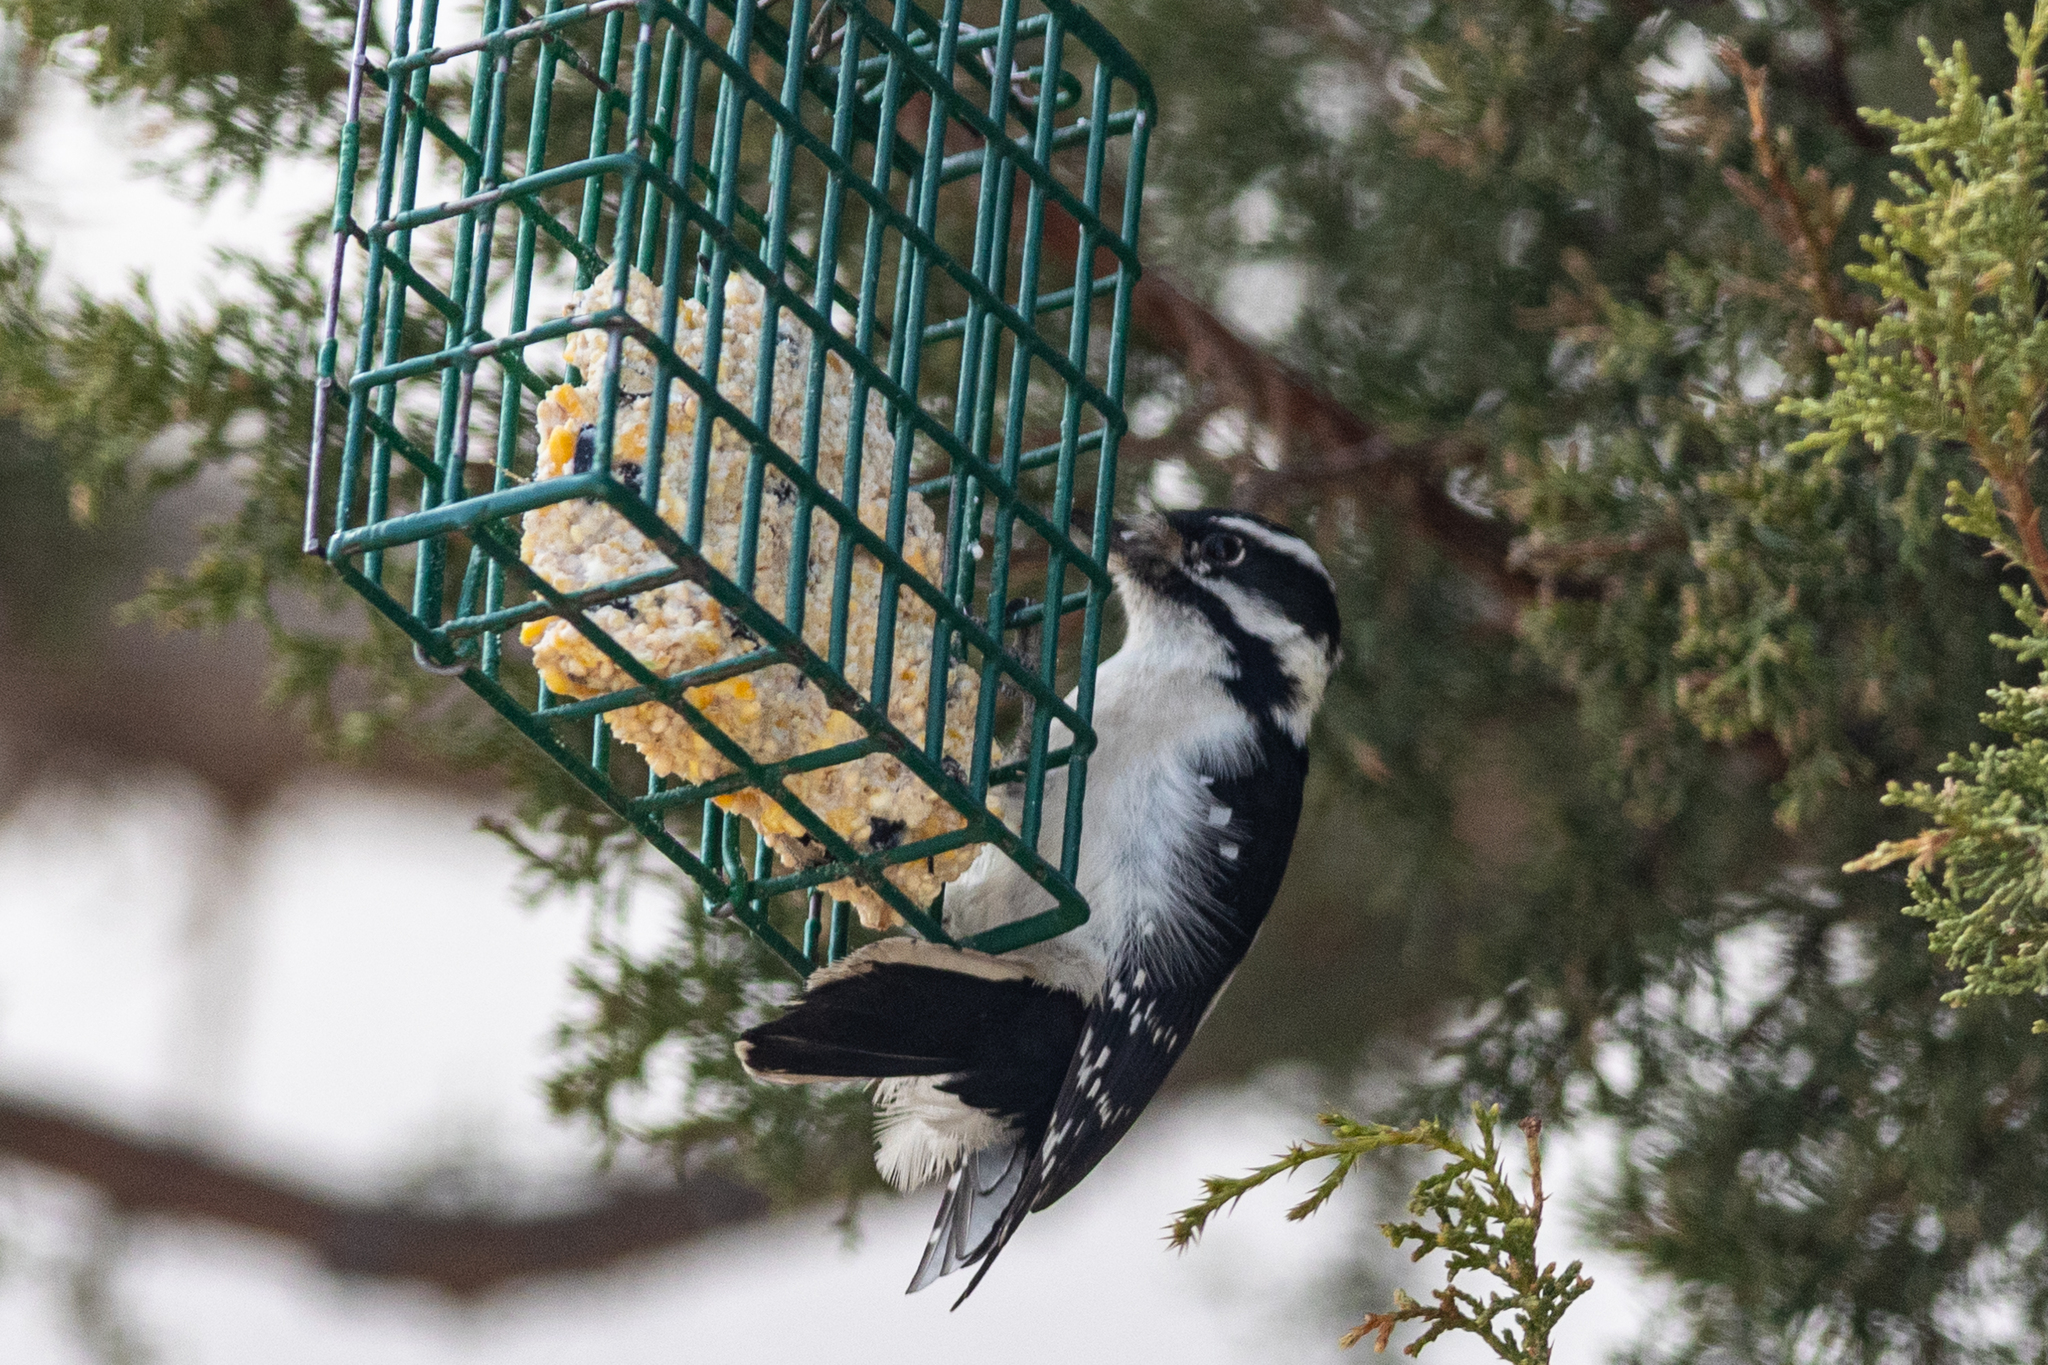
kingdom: Animalia
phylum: Chordata
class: Aves
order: Piciformes
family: Picidae
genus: Dryobates
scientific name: Dryobates pubescens
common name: Downy woodpecker
